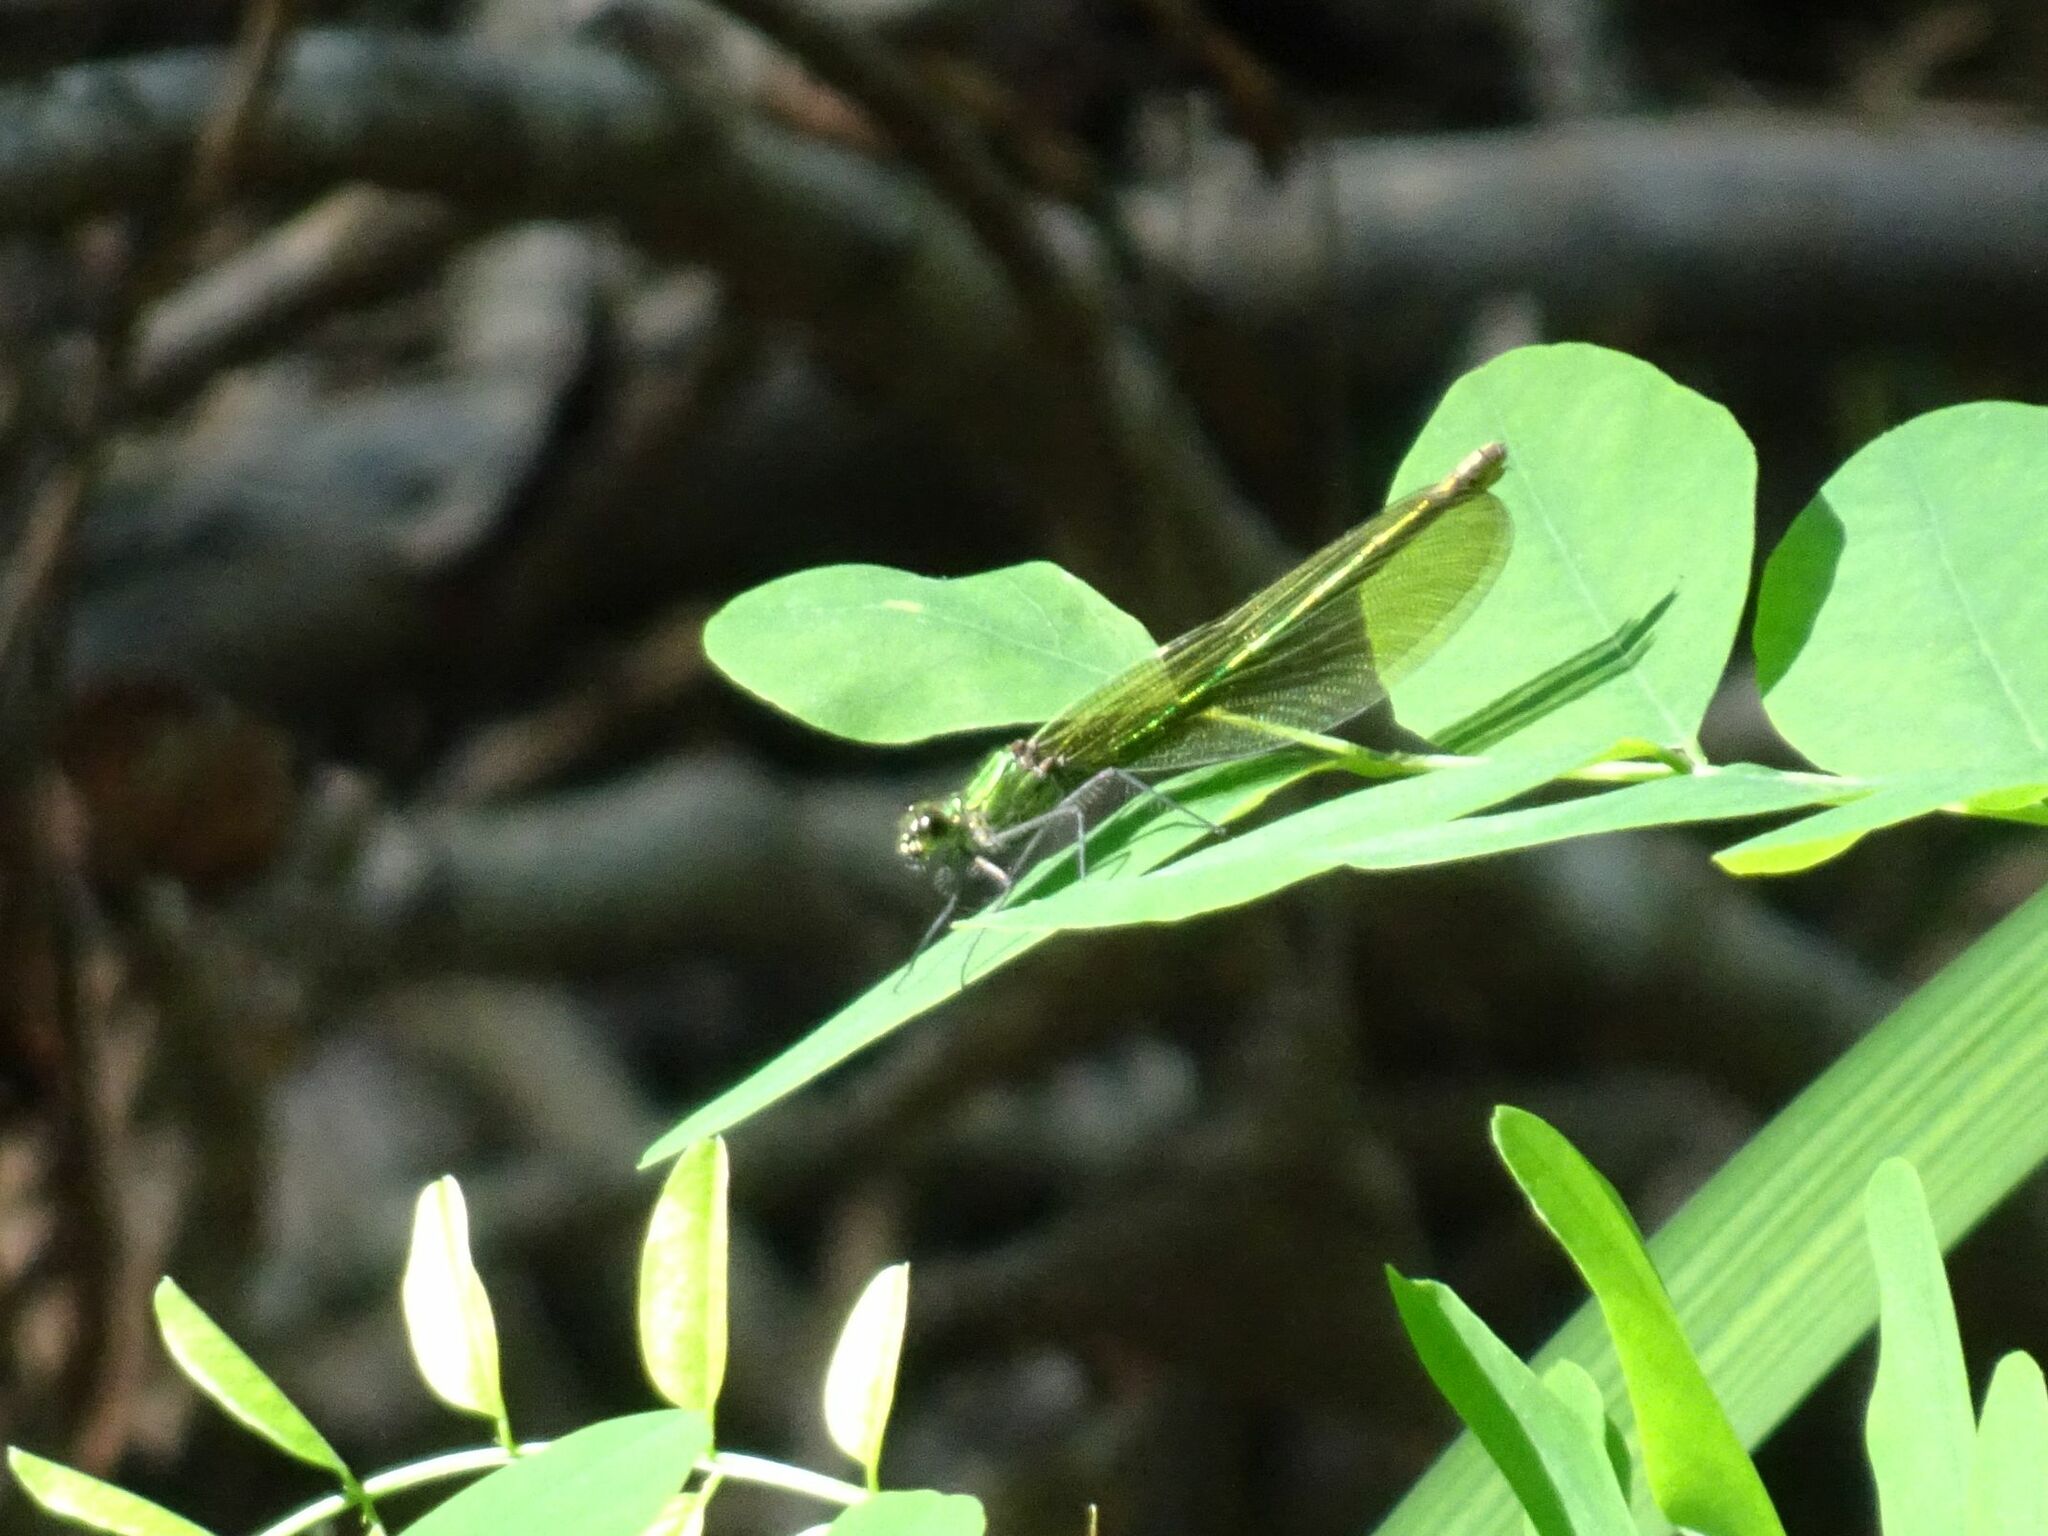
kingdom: Animalia
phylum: Arthropoda
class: Insecta
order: Odonata
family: Calopterygidae
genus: Calopteryx
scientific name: Calopteryx splendens
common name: Banded demoiselle
